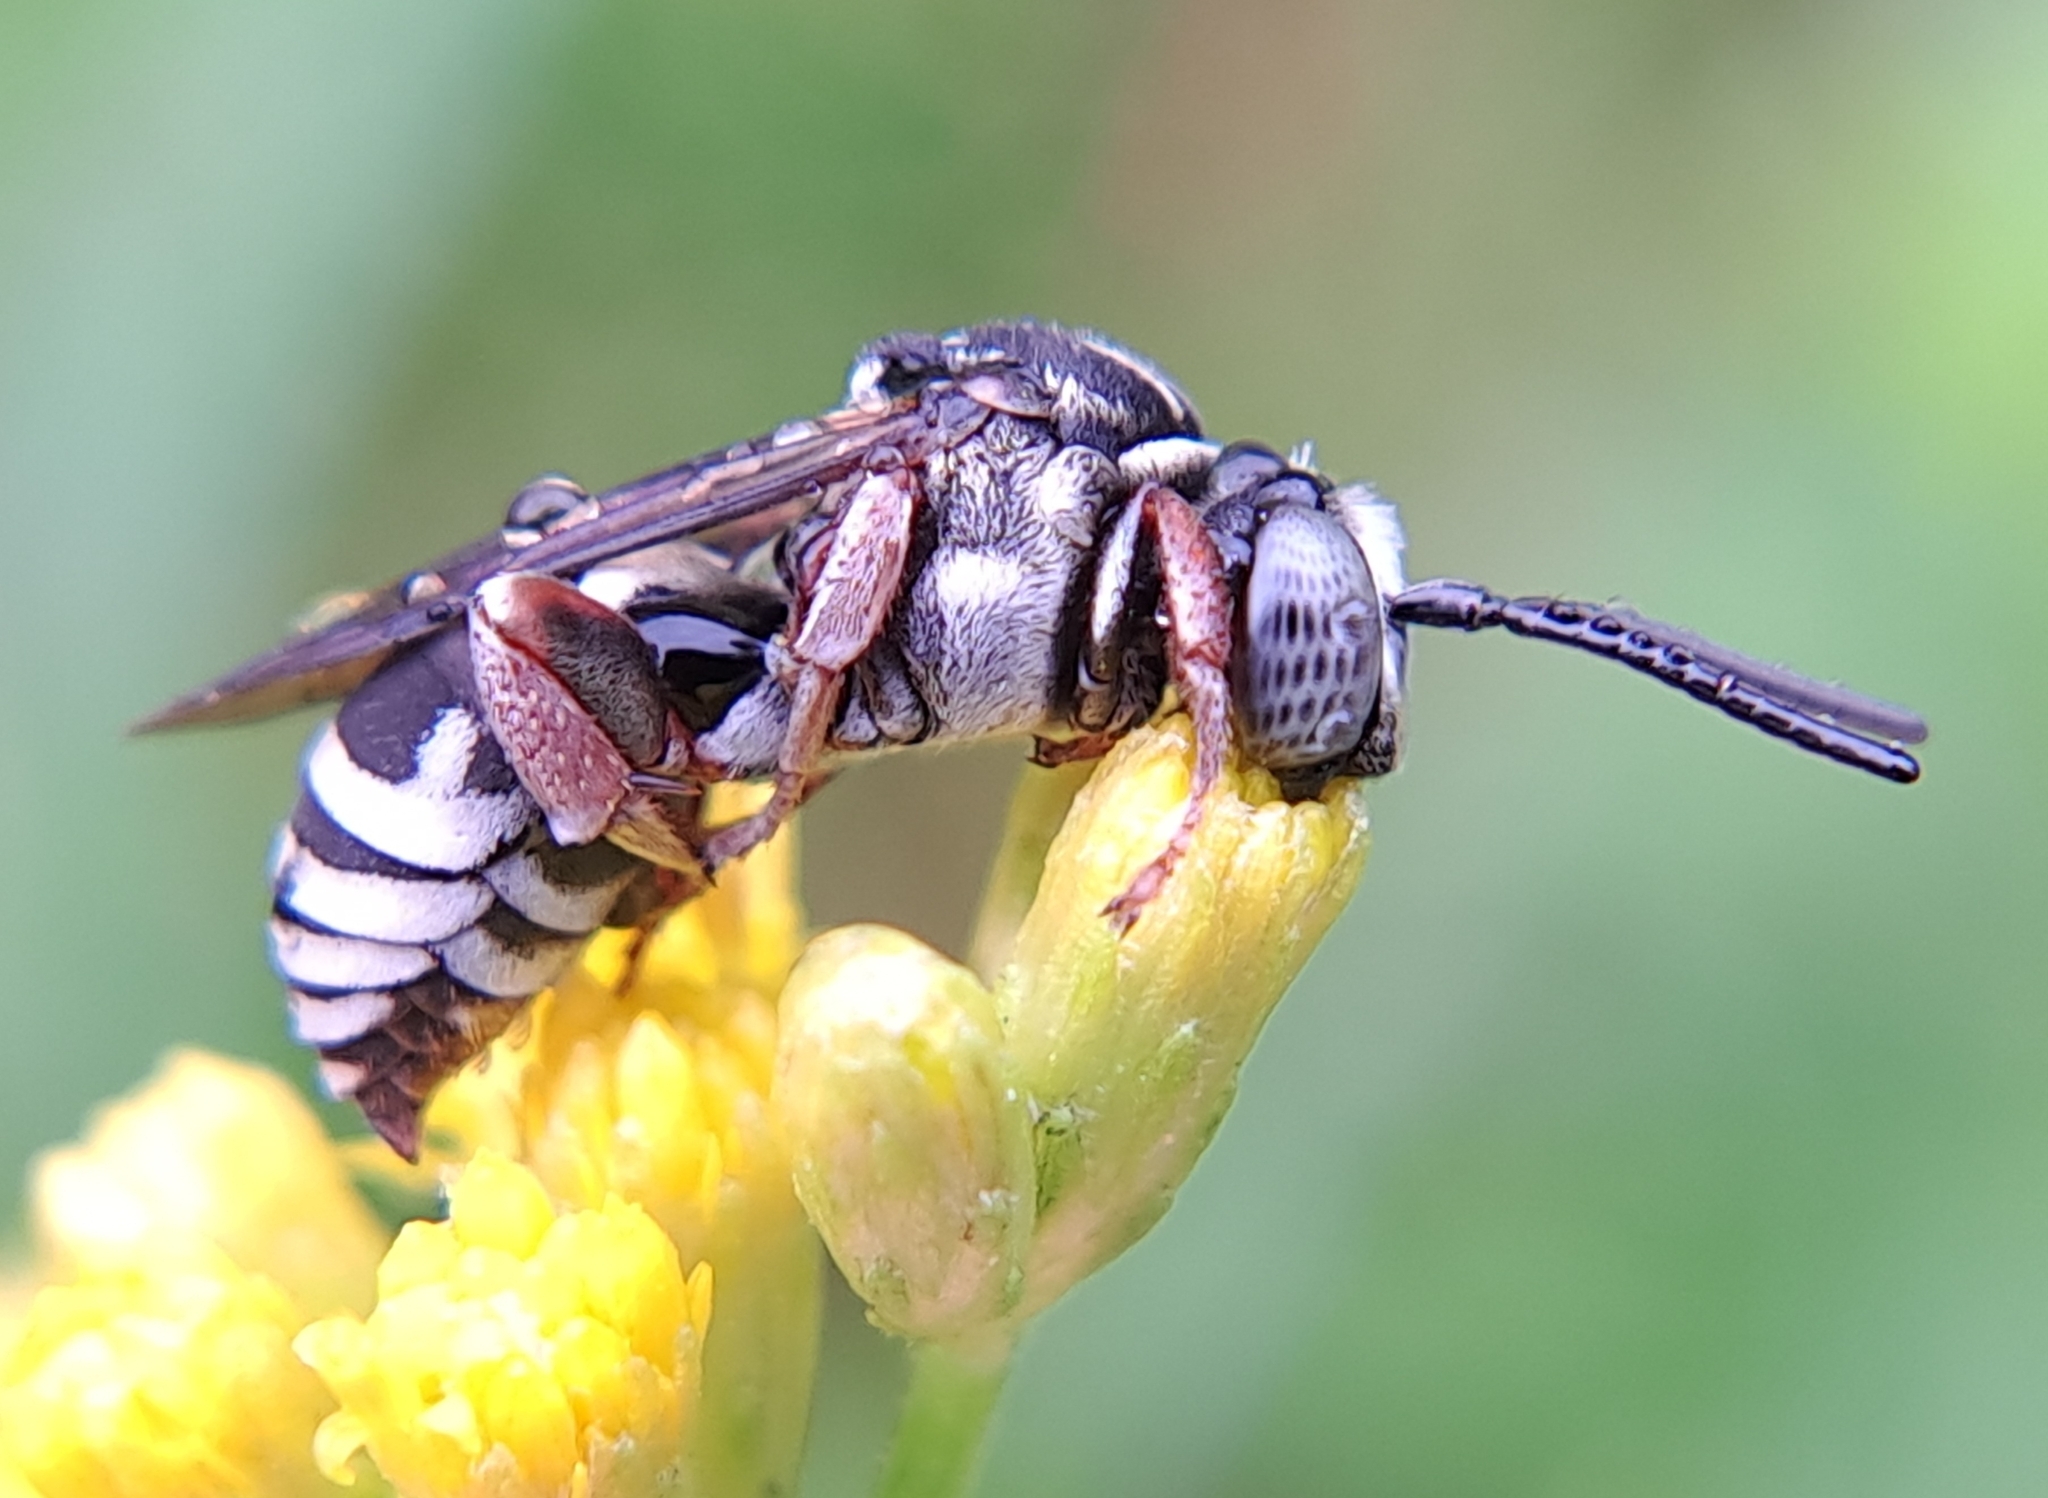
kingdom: Animalia
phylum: Arthropoda
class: Insecta
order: Hymenoptera
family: Apidae
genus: Triepeolus
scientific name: Triepeolus pectoralis
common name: Goldenrod longhorn-cuckoo bee
